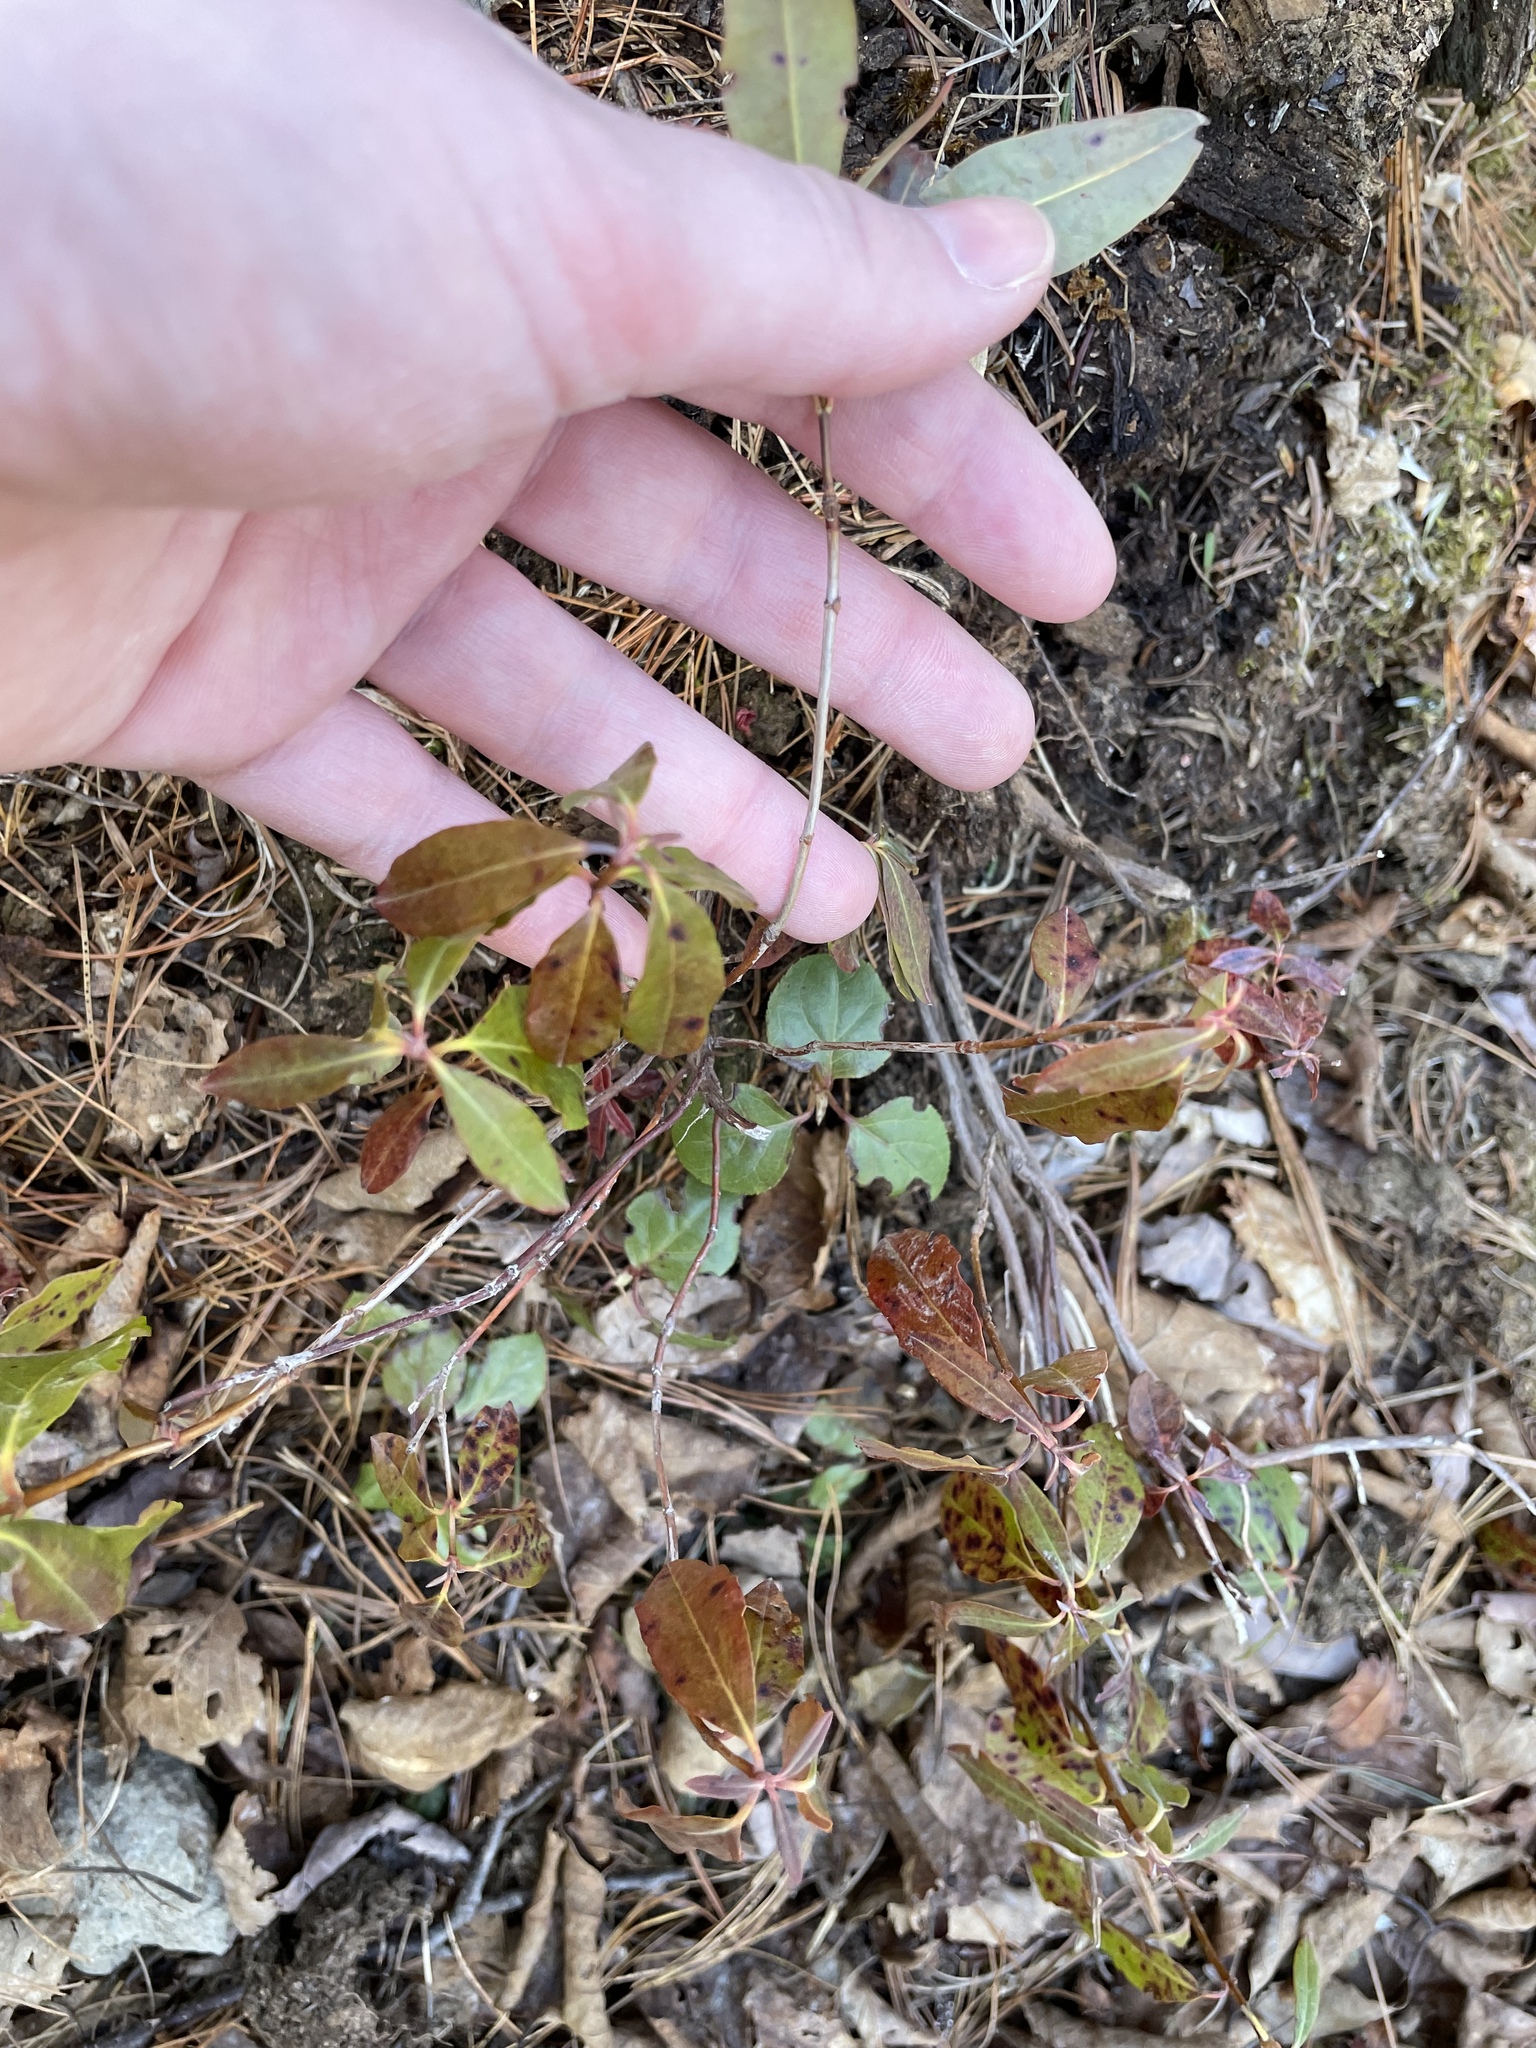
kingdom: Plantae
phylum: Tracheophyta
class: Magnoliopsida
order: Ericales
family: Ericaceae
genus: Kalmia
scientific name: Kalmia angustifolia
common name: Sheep-laurel
